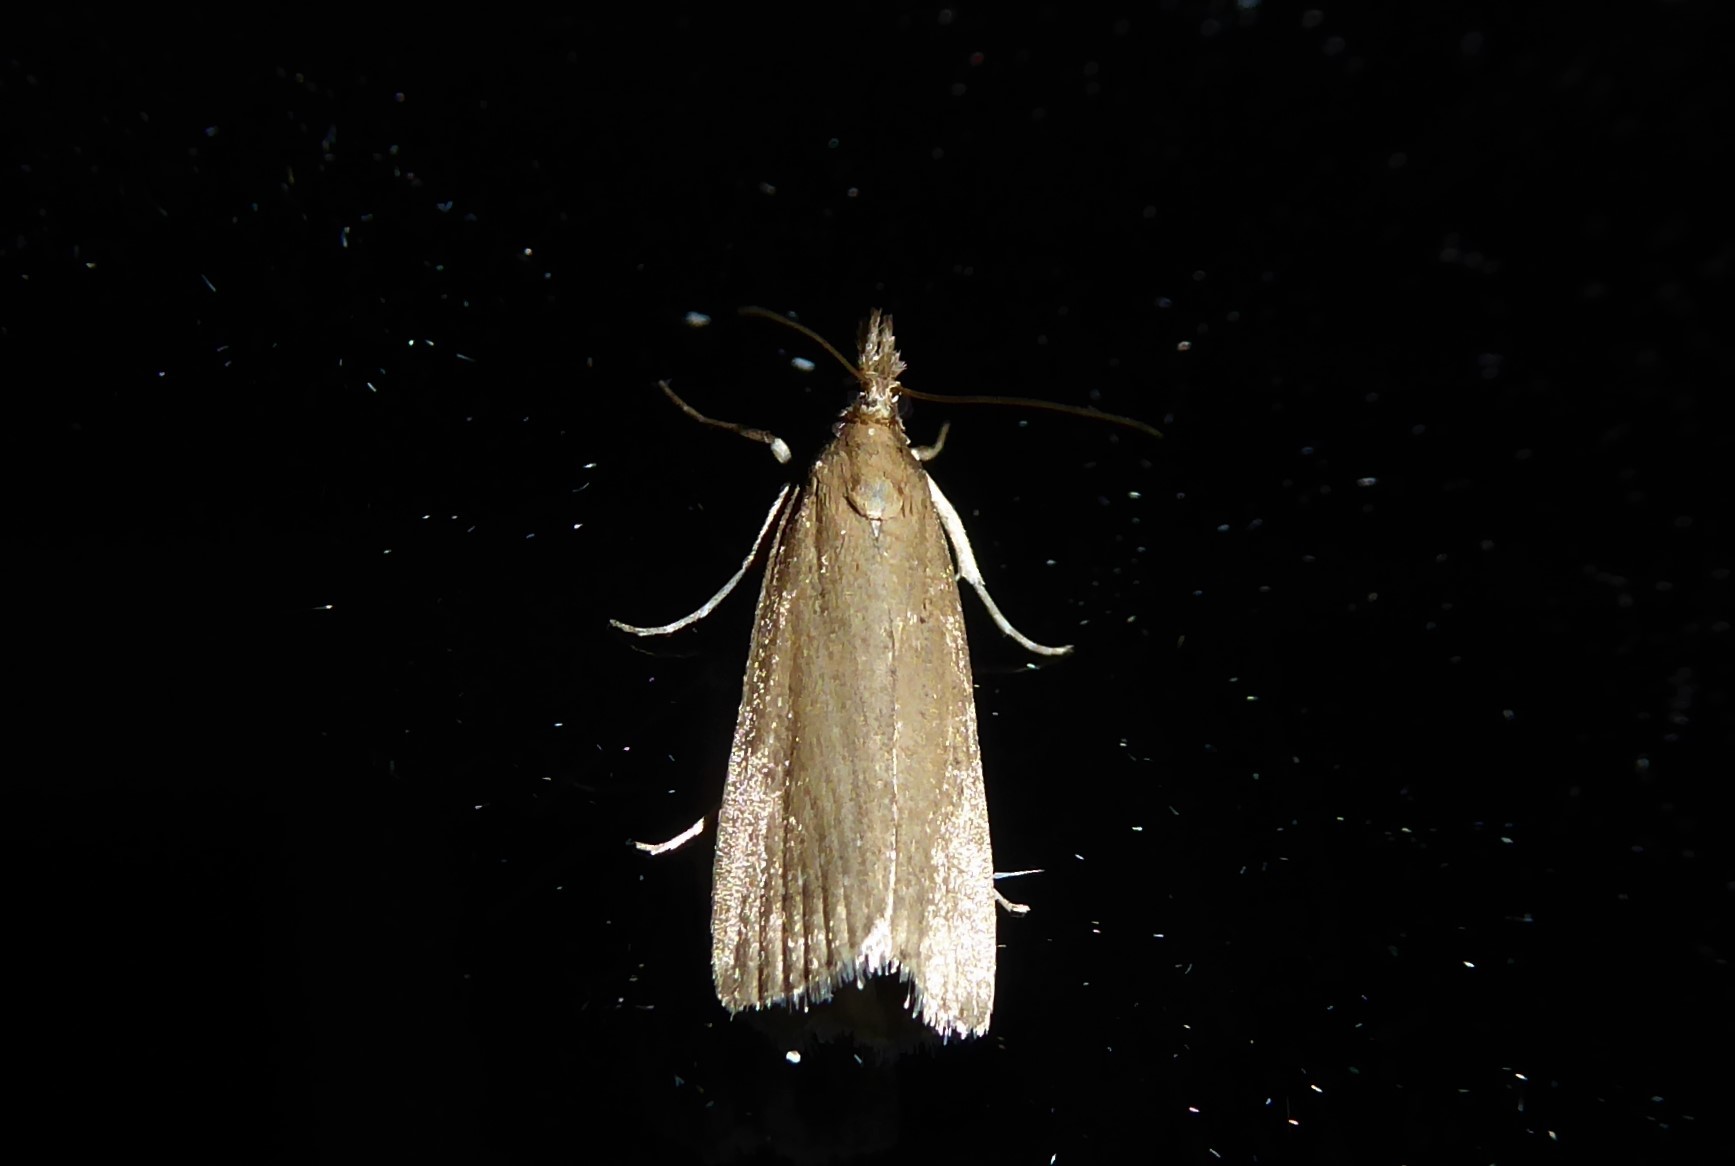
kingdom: Animalia
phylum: Arthropoda
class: Insecta
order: Lepidoptera
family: Crambidae
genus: Eudonia
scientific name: Eudonia sabulosella
